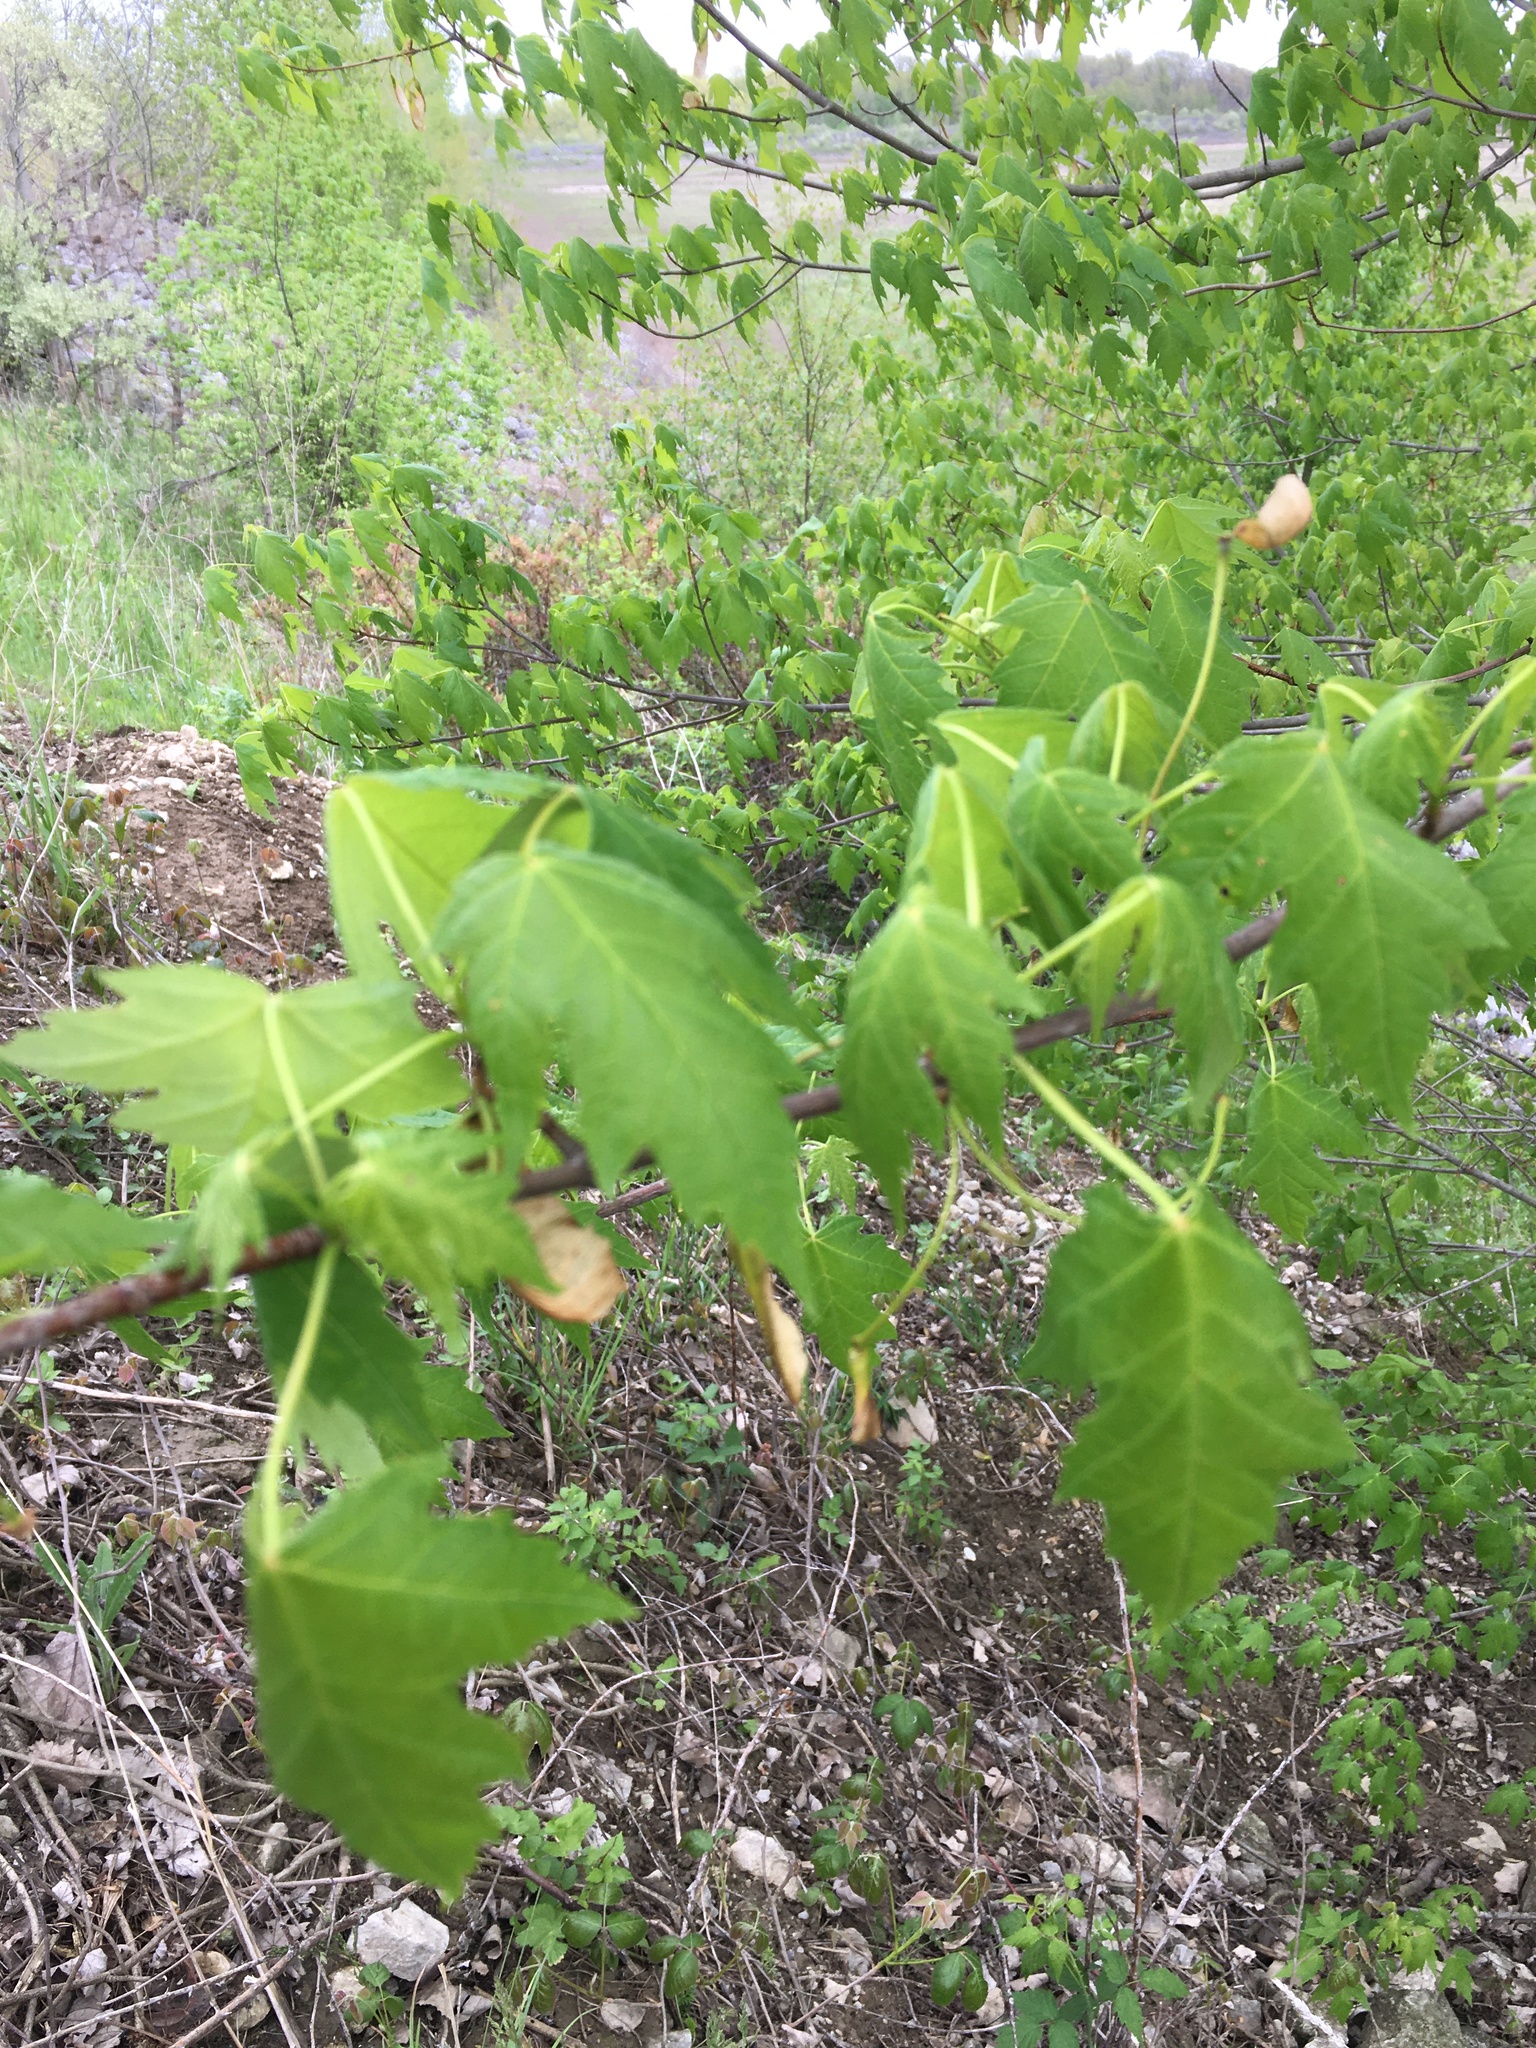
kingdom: Plantae
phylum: Tracheophyta
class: Magnoliopsida
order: Sapindales
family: Sapindaceae
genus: Acer
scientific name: Acer saccharinum
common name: Silver maple
